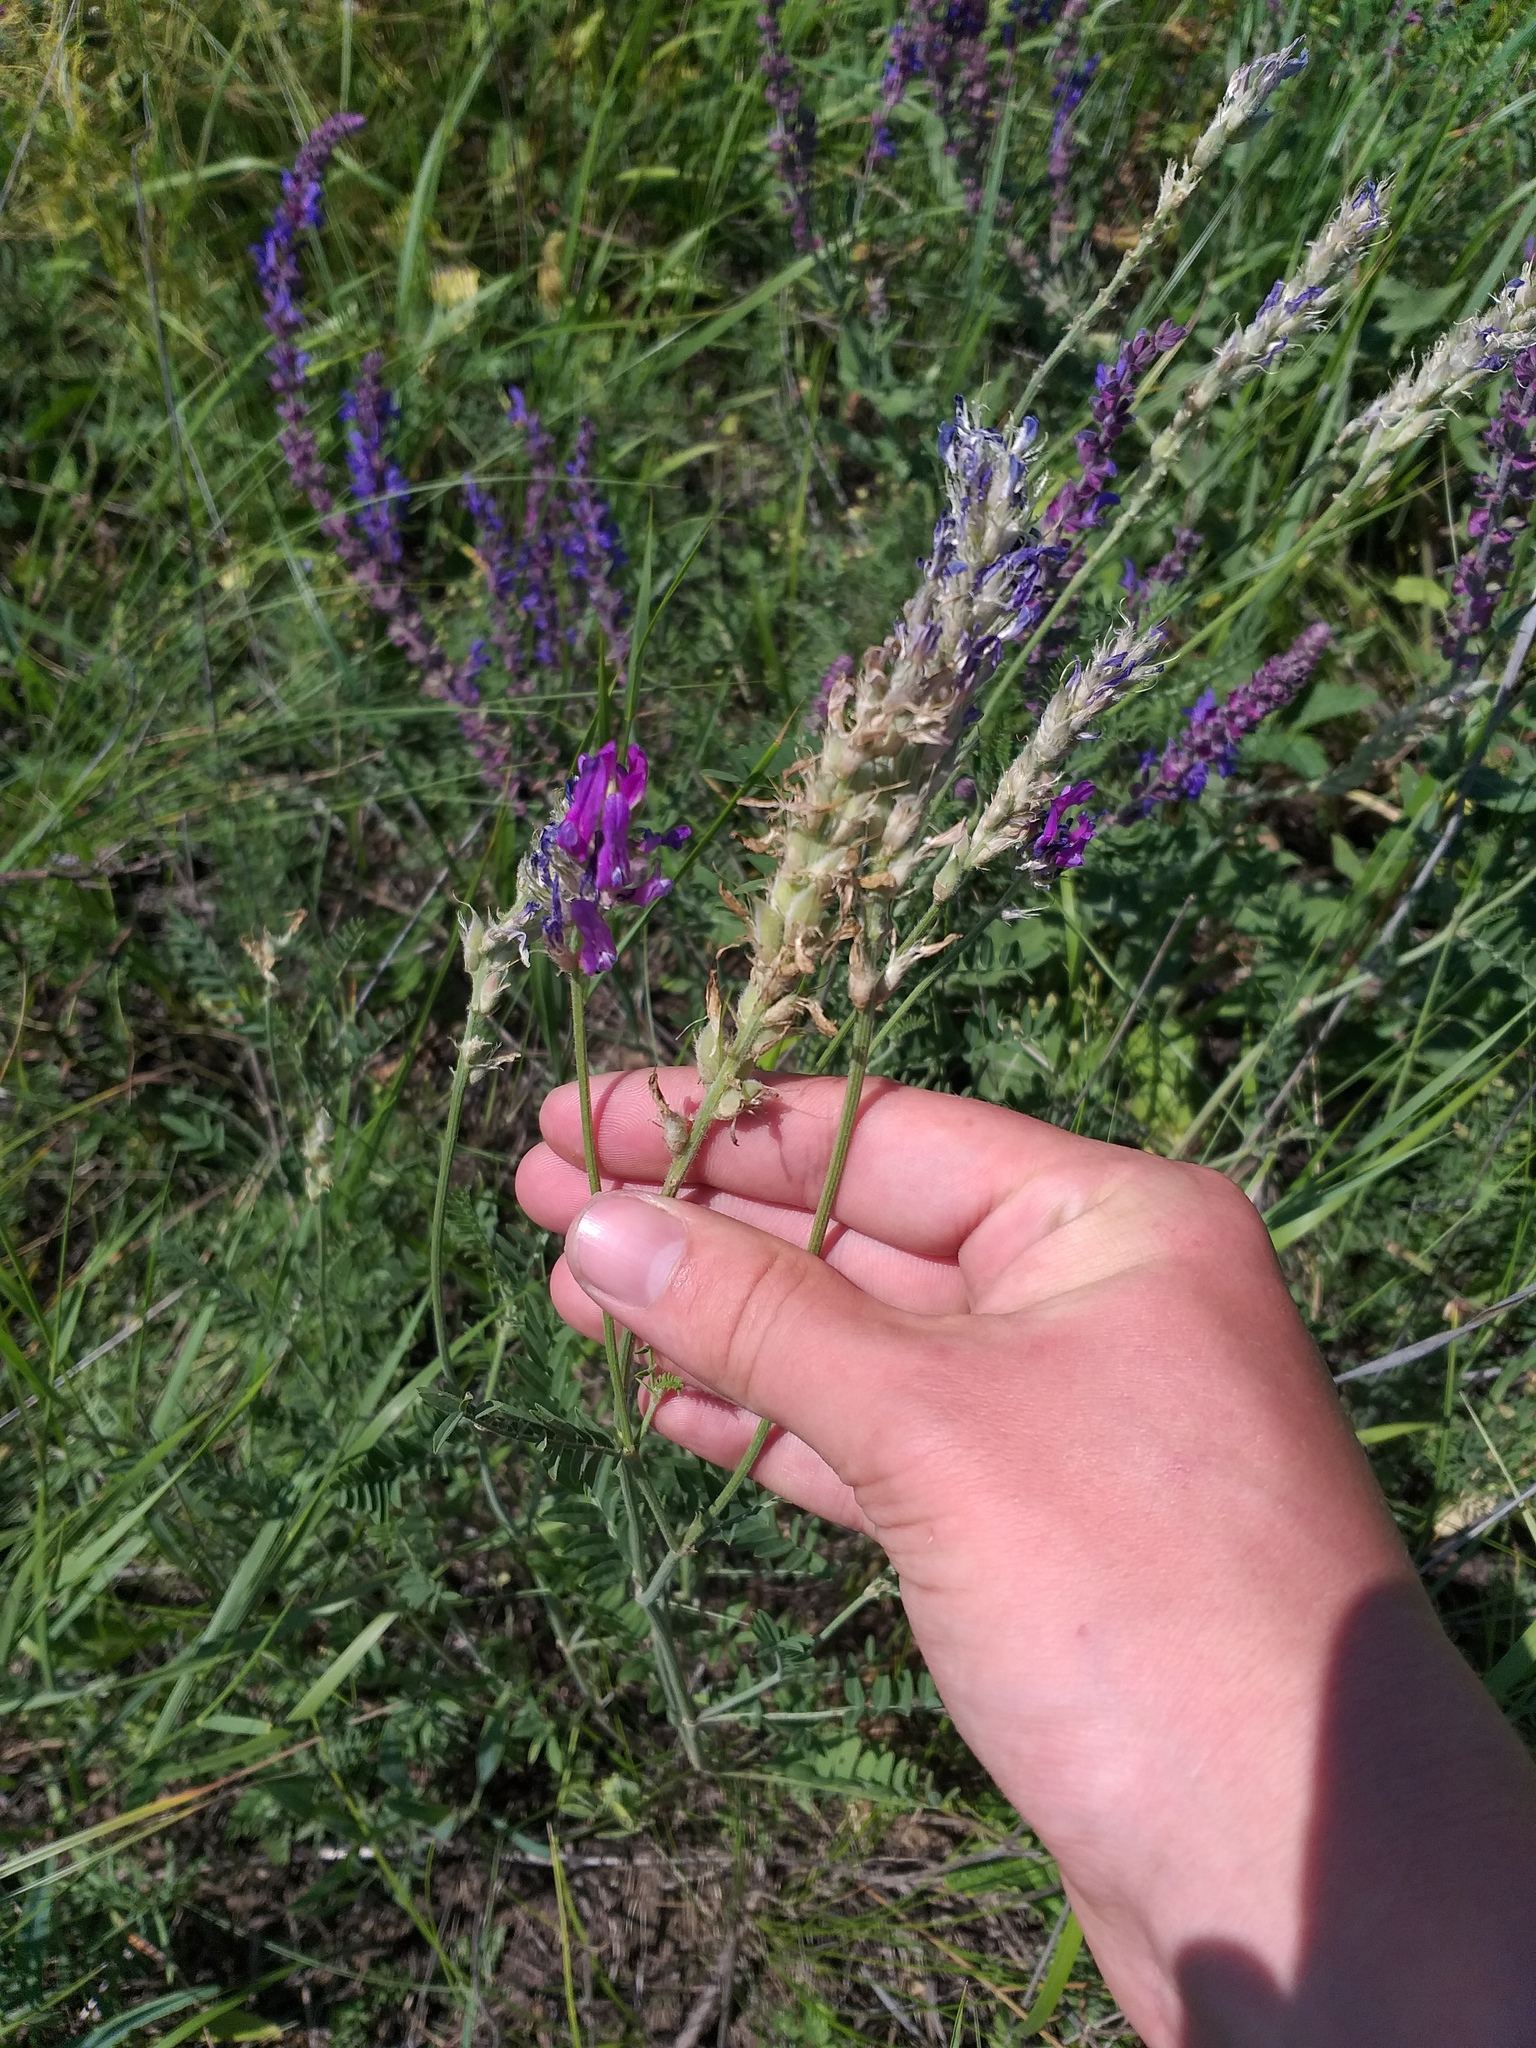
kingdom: Plantae
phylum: Tracheophyta
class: Magnoliopsida
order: Fabales
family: Fabaceae
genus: Astragalus
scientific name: Astragalus onobrychis
